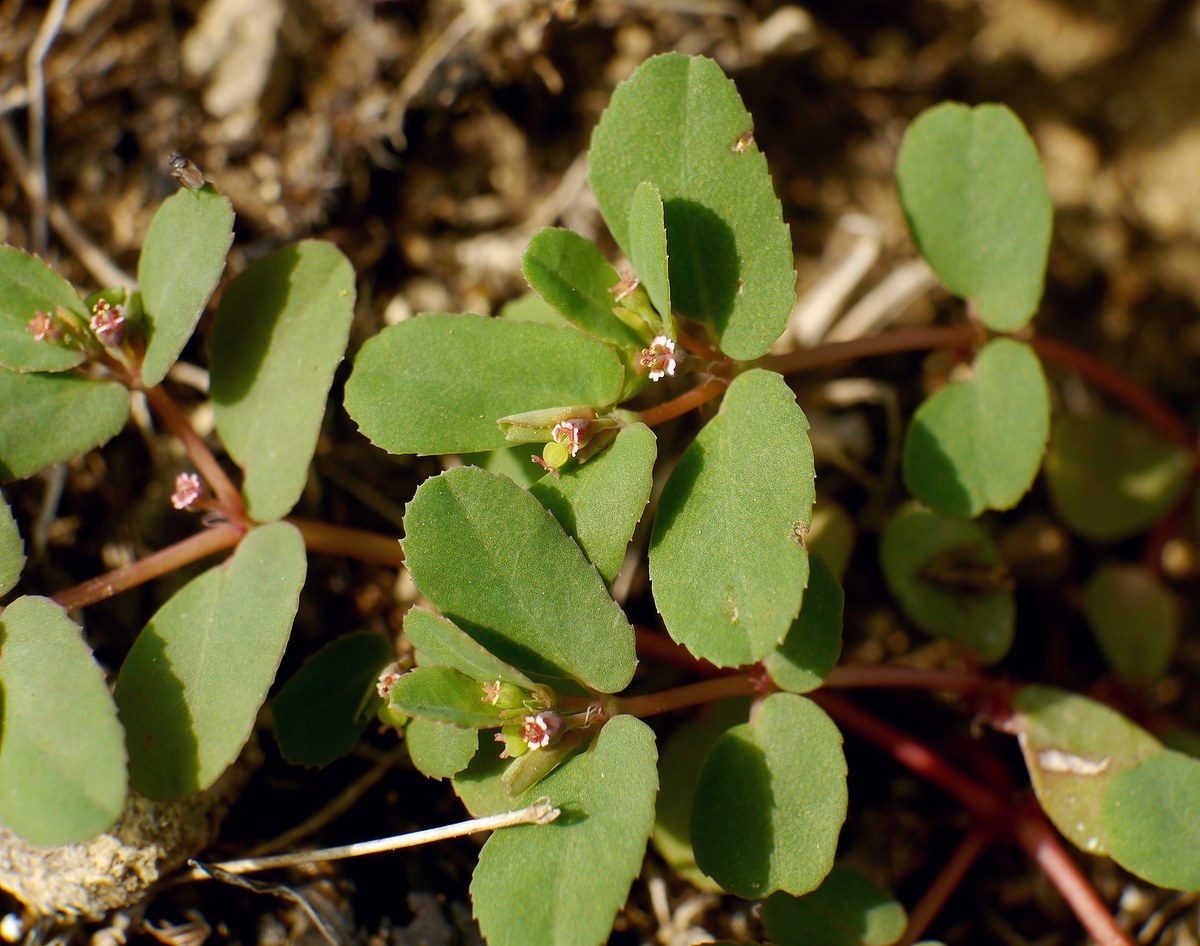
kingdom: Plantae
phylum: Tracheophyta
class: Magnoliopsida
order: Malpighiales
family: Euphorbiaceae
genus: Euphorbia
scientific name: Euphorbia glyptosperma
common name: Corrugate-seeded spurge
